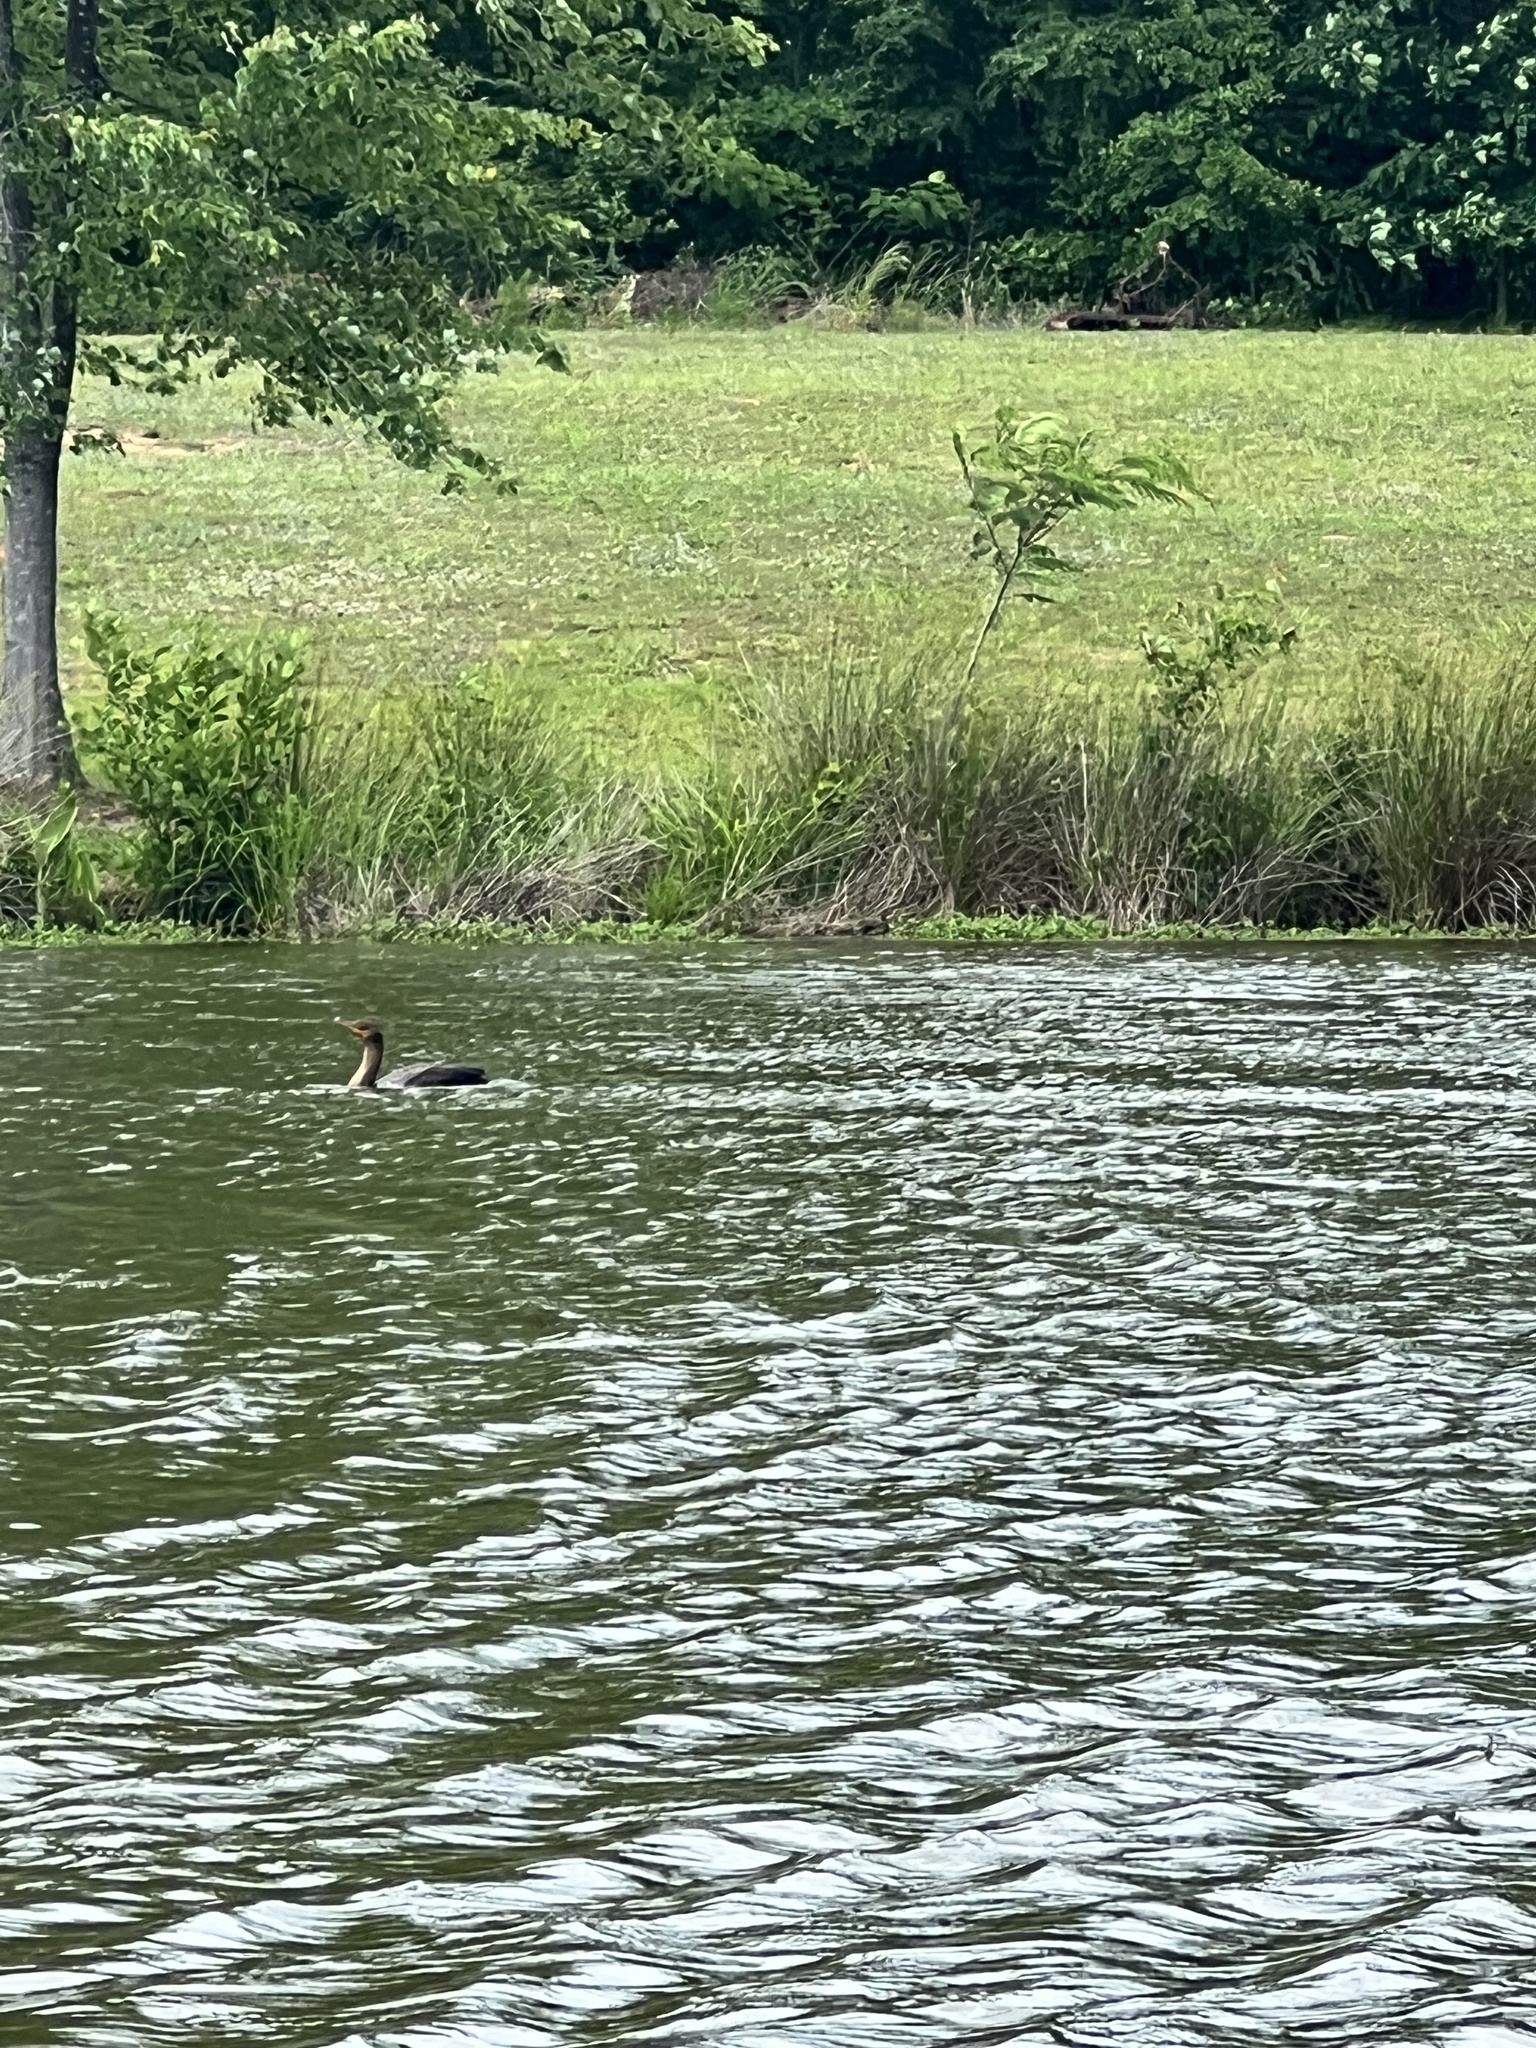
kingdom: Animalia
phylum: Chordata
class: Aves
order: Suliformes
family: Phalacrocoracidae
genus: Phalacrocorax
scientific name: Phalacrocorax auritus
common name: Double-crested cormorant
